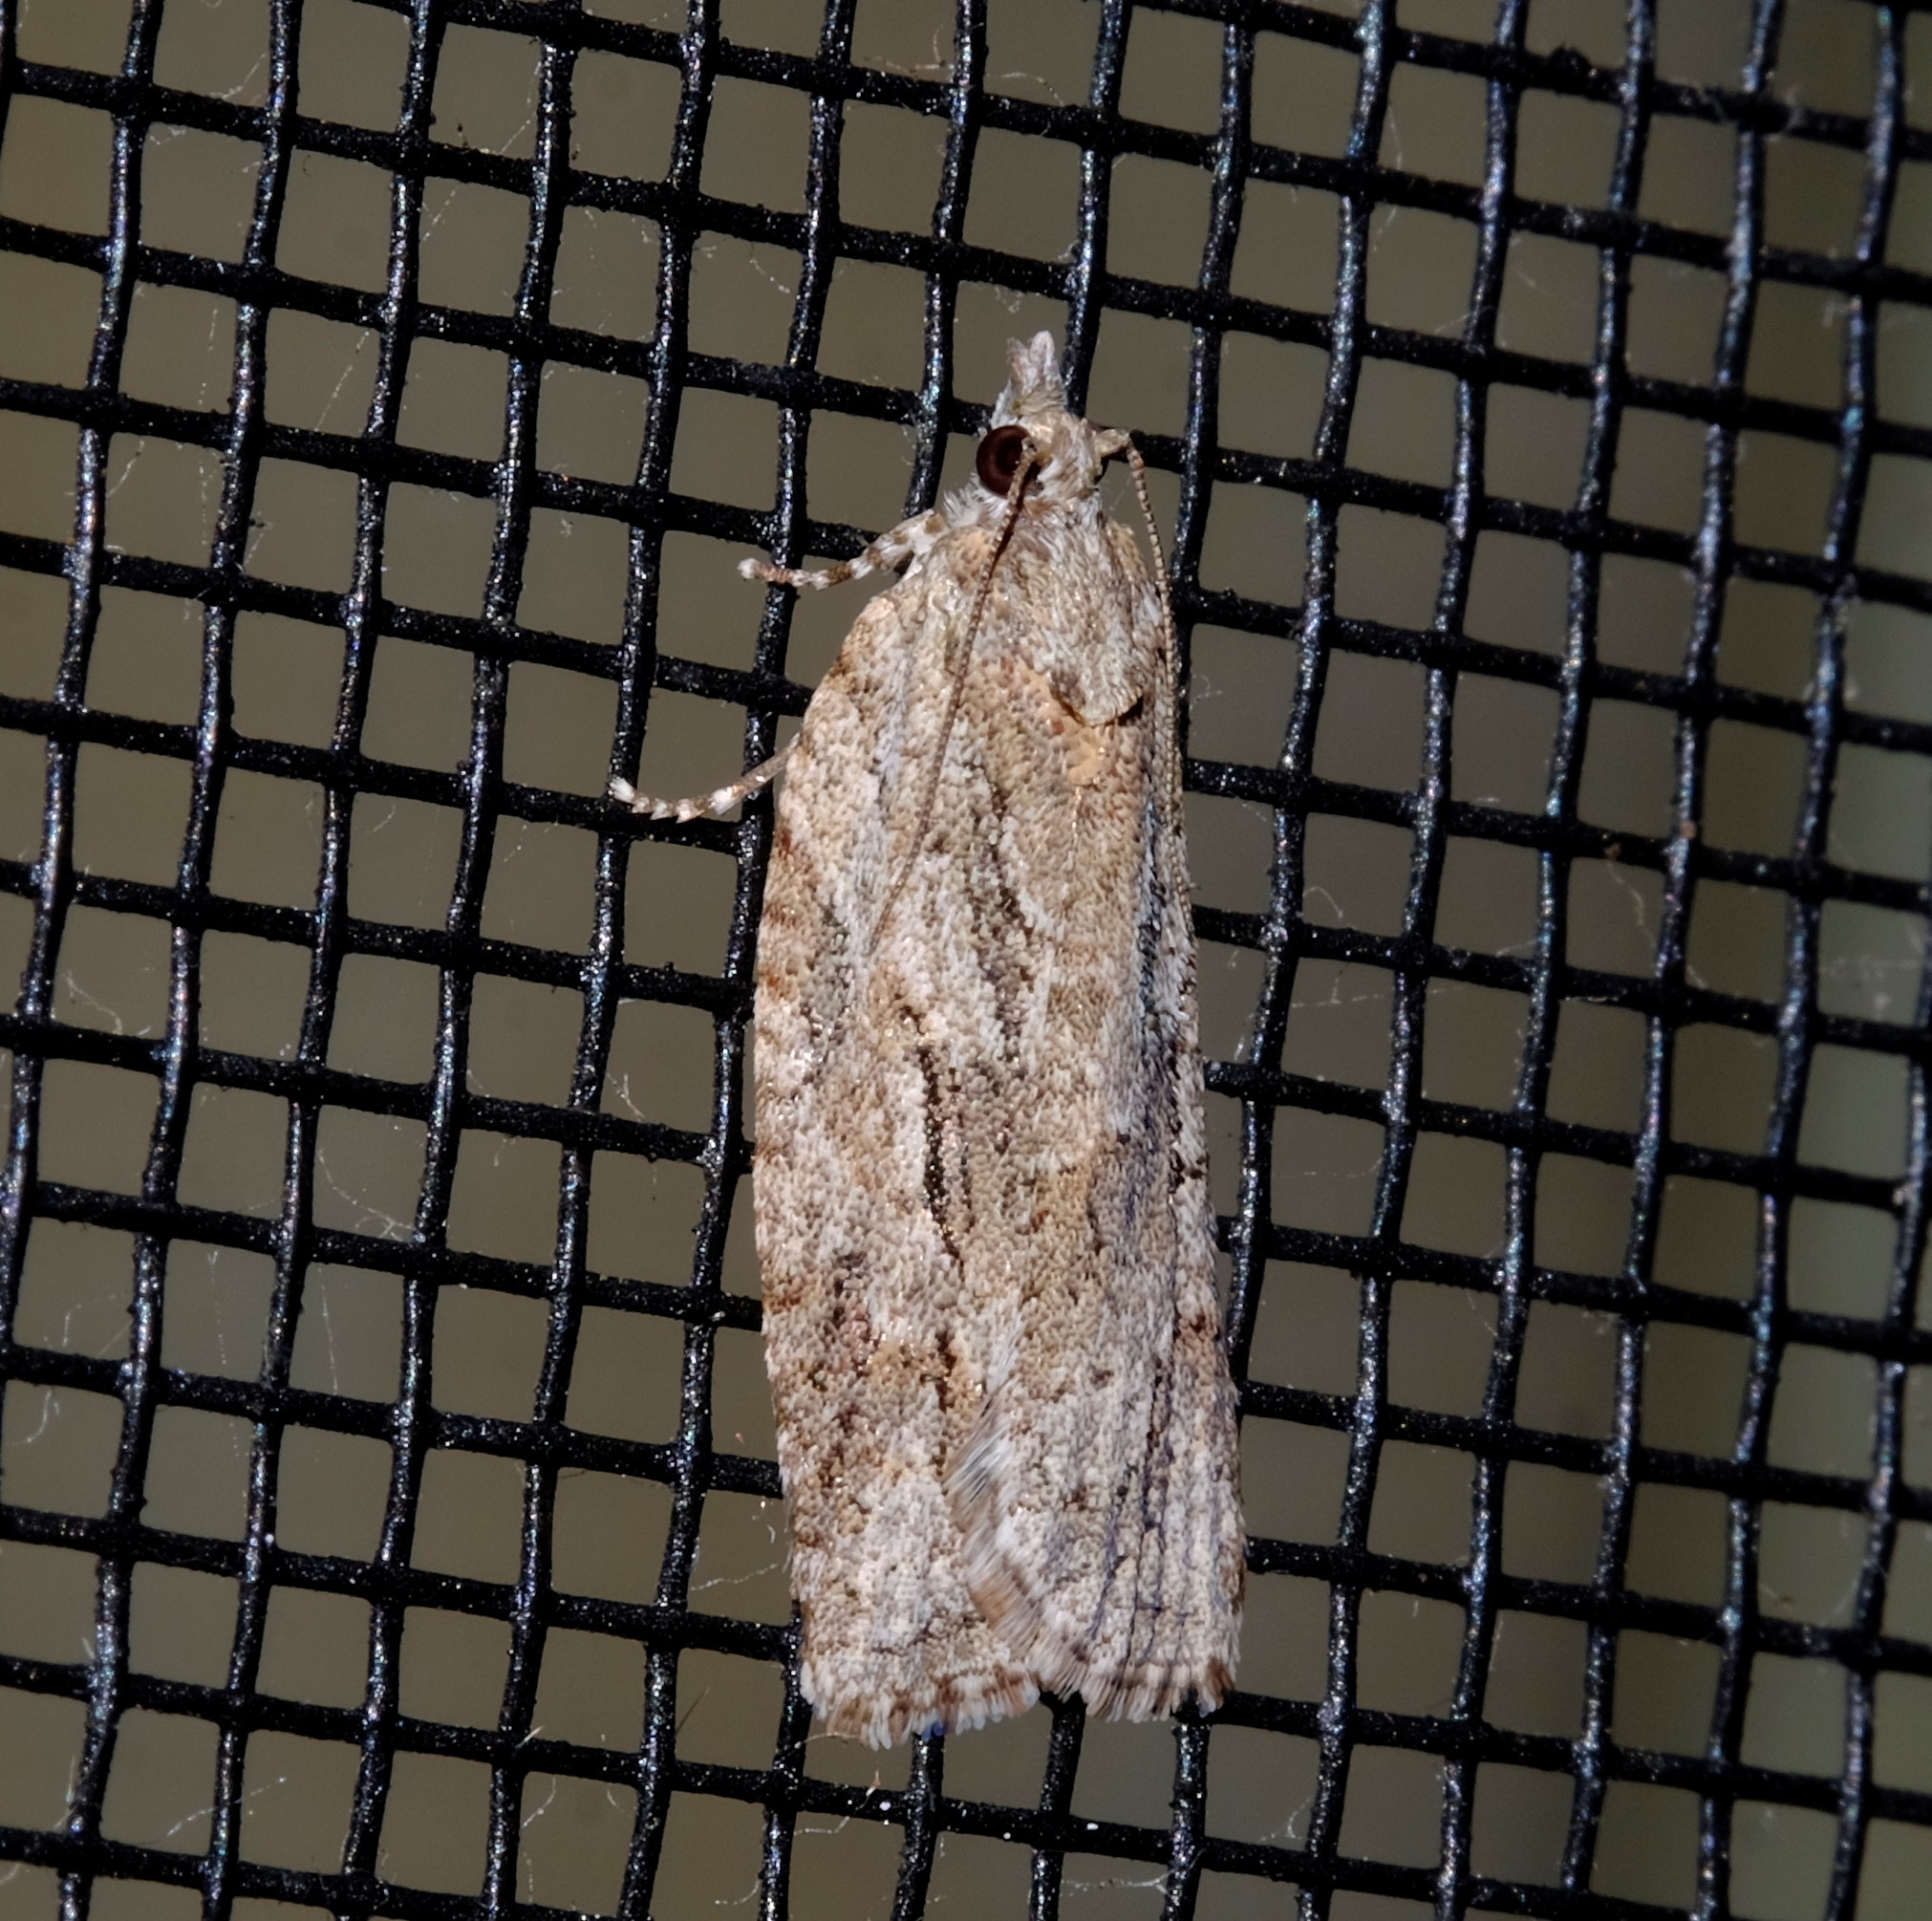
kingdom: Animalia
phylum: Arthropoda
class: Insecta
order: Lepidoptera
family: Tortricidae
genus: Thrincophora
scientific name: Thrincophora lignigerana
